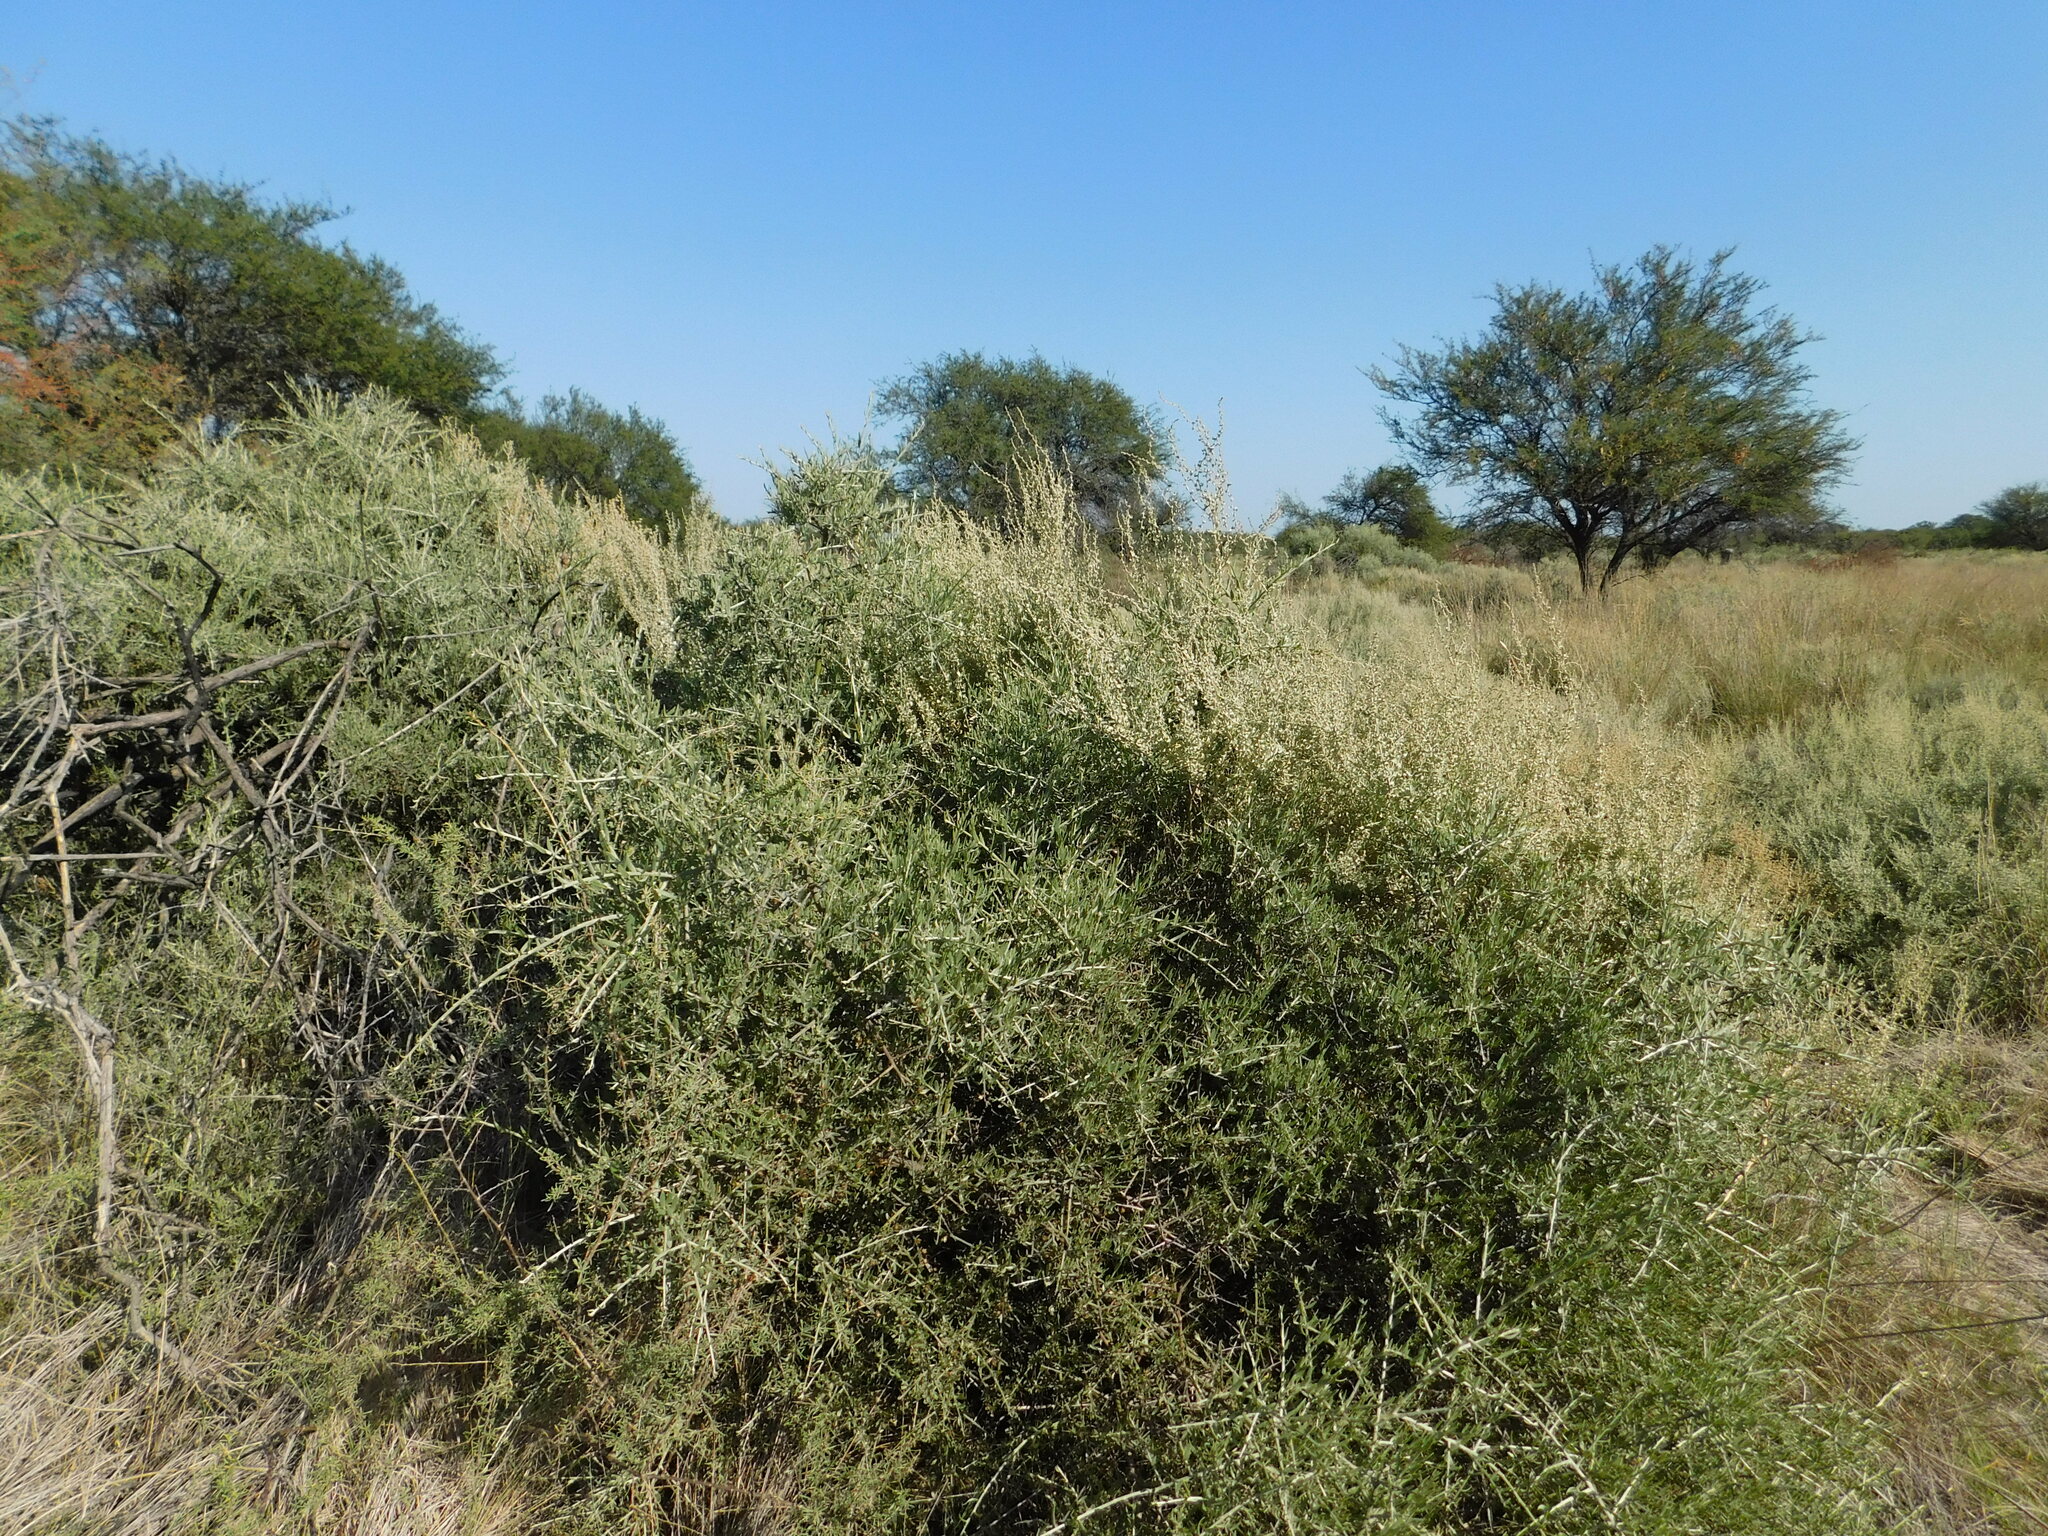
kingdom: Plantae
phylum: Tracheophyta
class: Magnoliopsida
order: Asterales
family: Asteraceae
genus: Cyclolepis
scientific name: Cyclolepis genistoides
